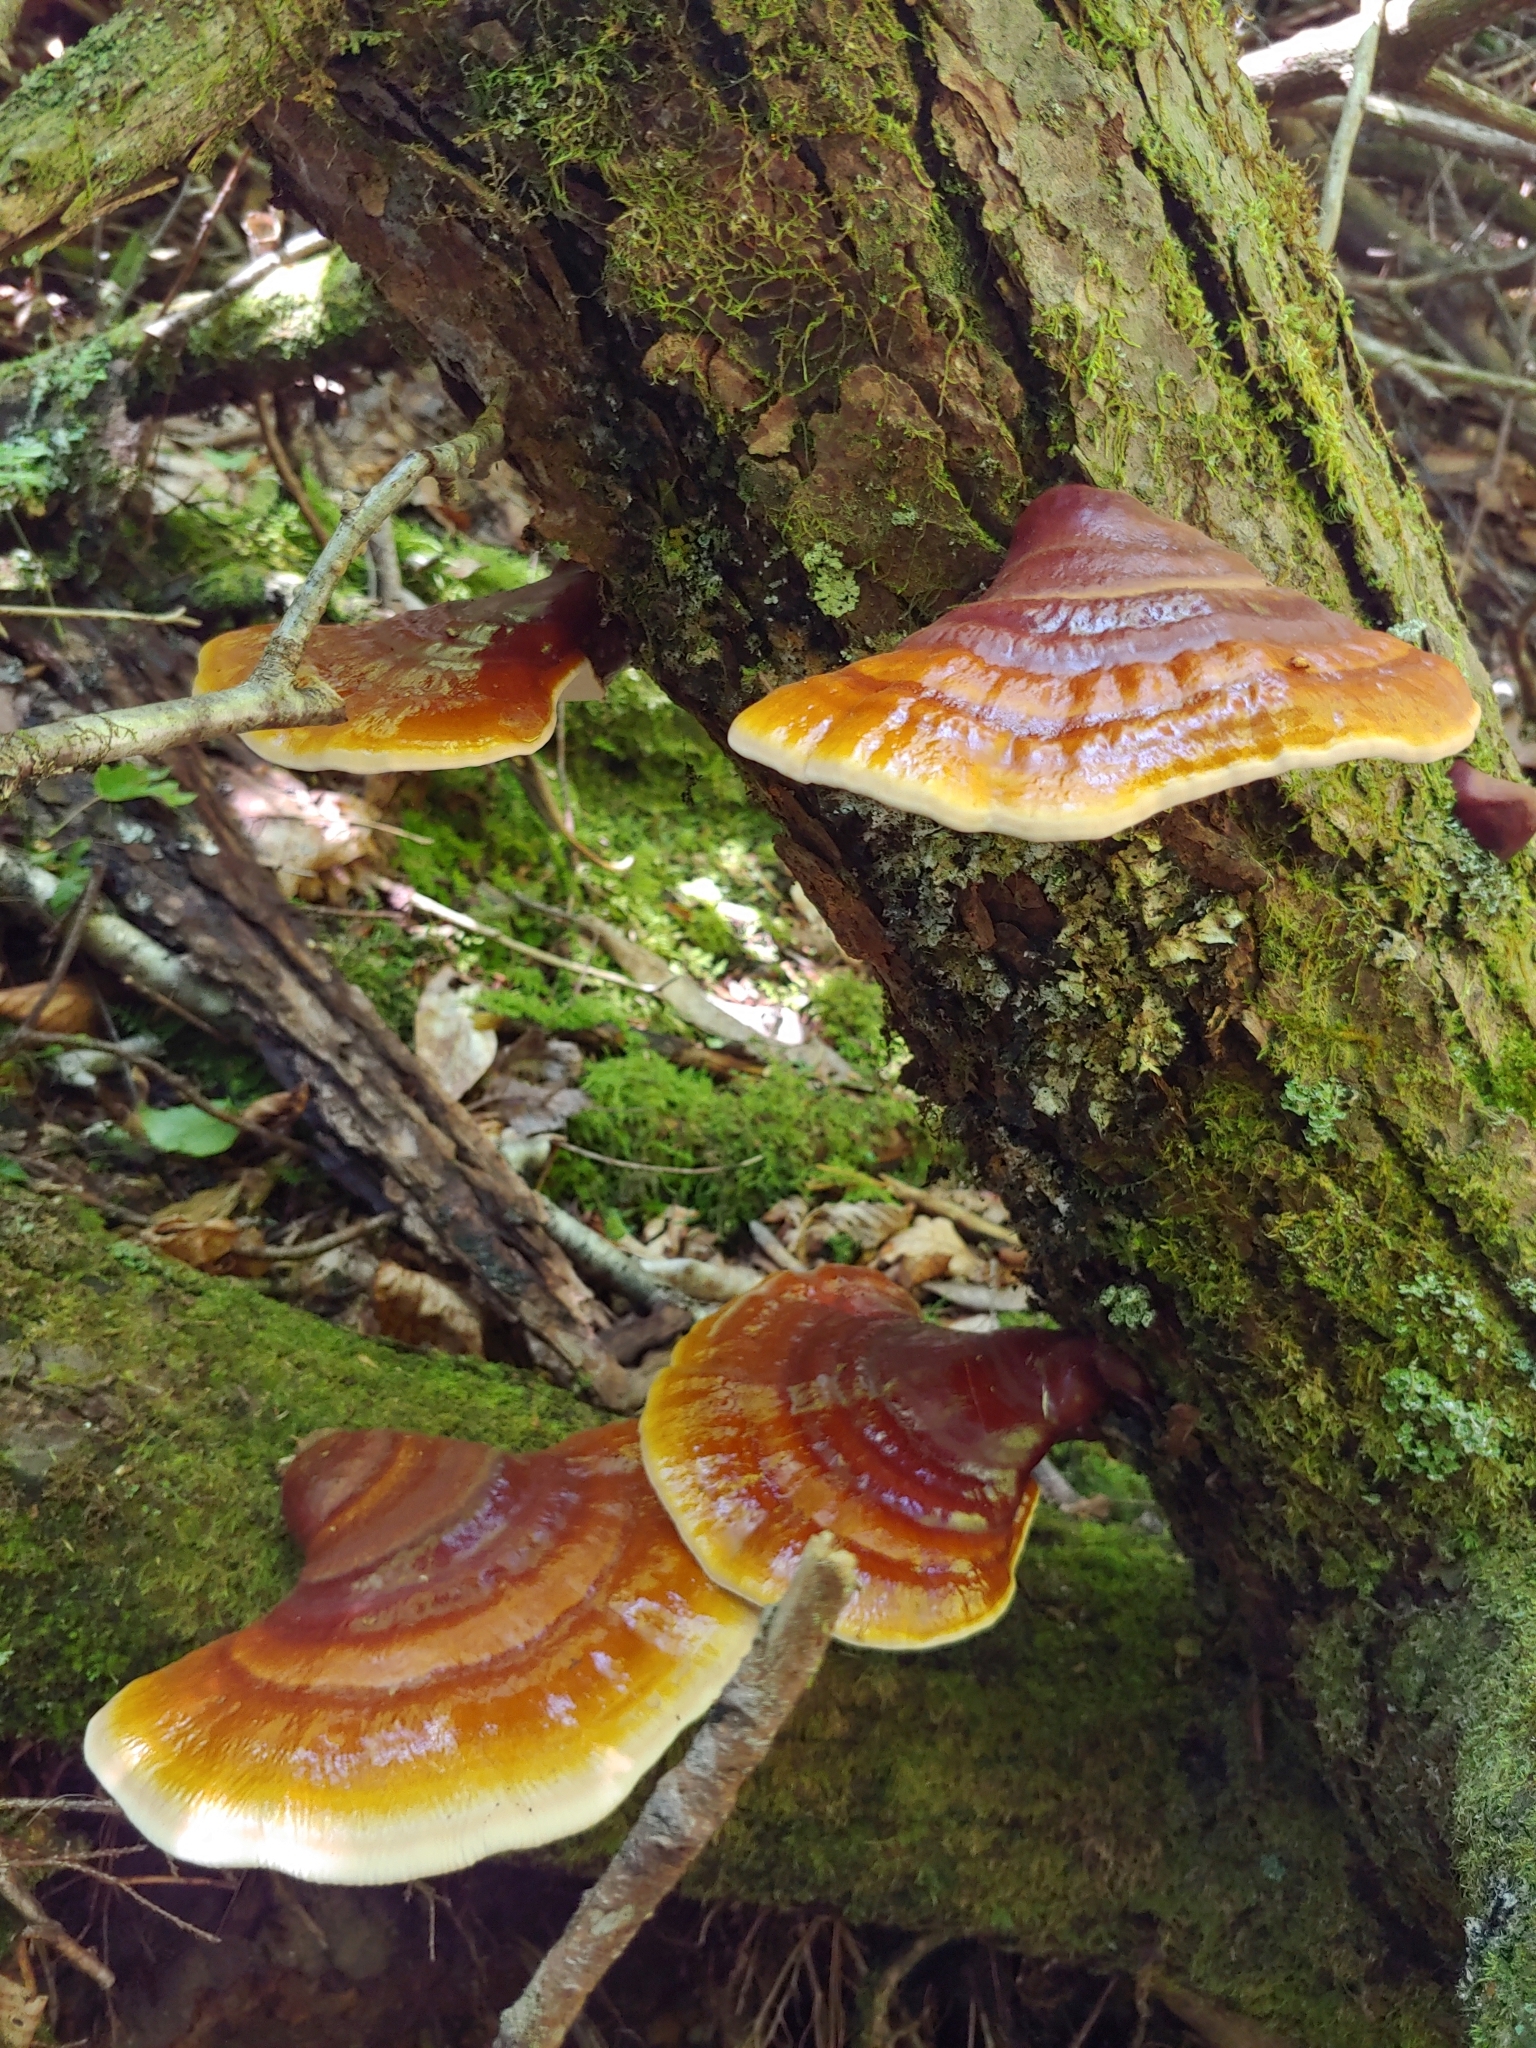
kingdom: Fungi
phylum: Basidiomycota
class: Agaricomycetes
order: Polyporales
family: Polyporaceae
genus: Ganoderma
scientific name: Ganoderma tsugae
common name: Hemlock varnish shelf
